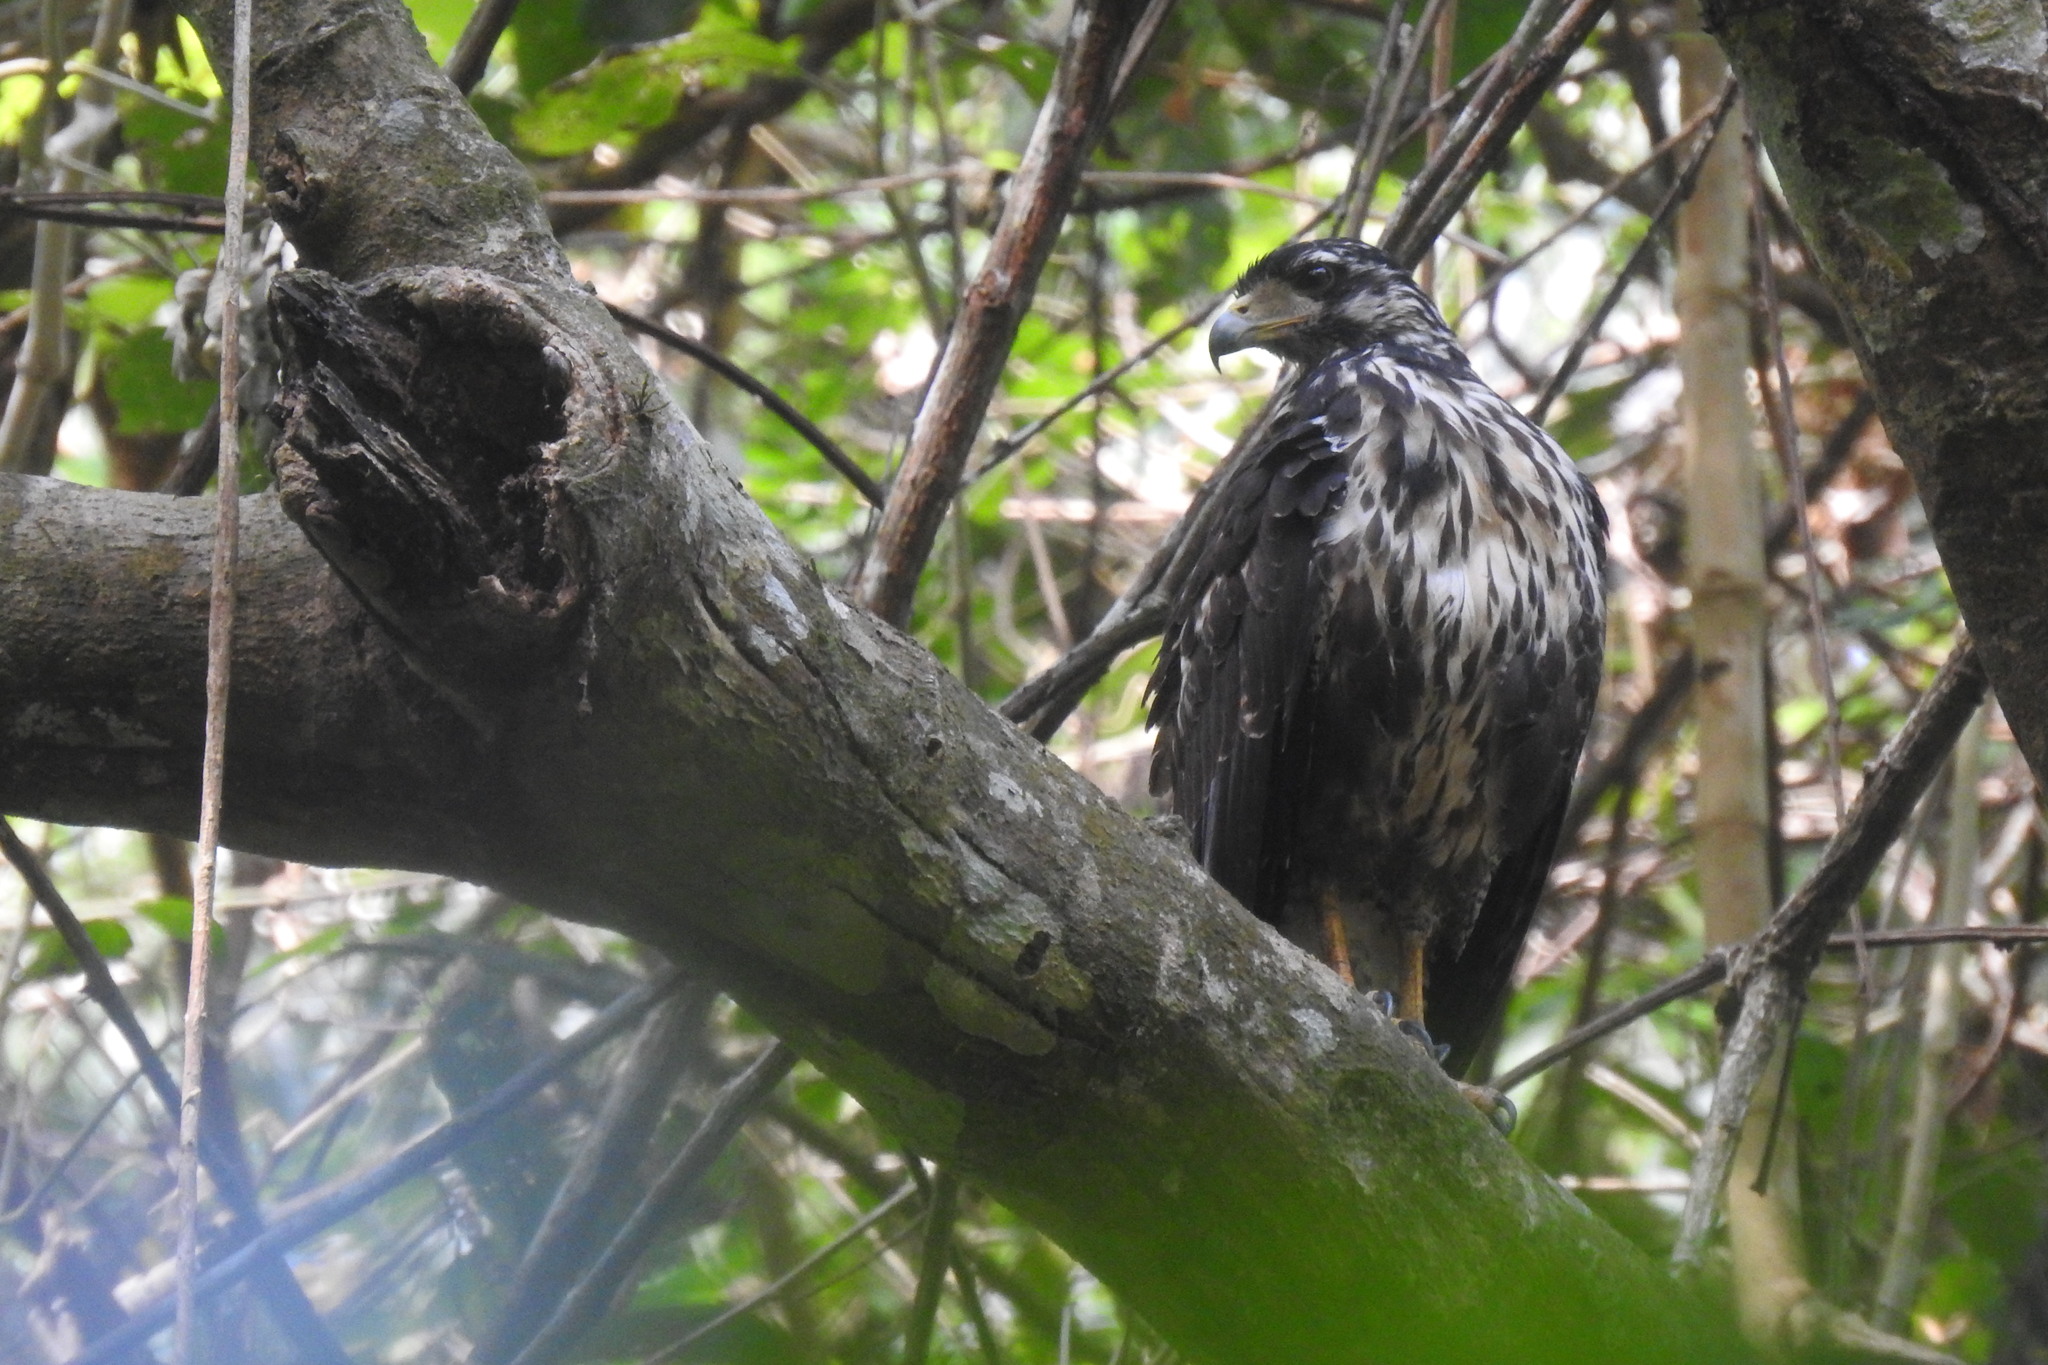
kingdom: Animalia
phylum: Chordata
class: Aves
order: Accipitriformes
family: Accipitridae
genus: Buteogallus
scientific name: Buteogallus anthracinus
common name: Common black hawk
